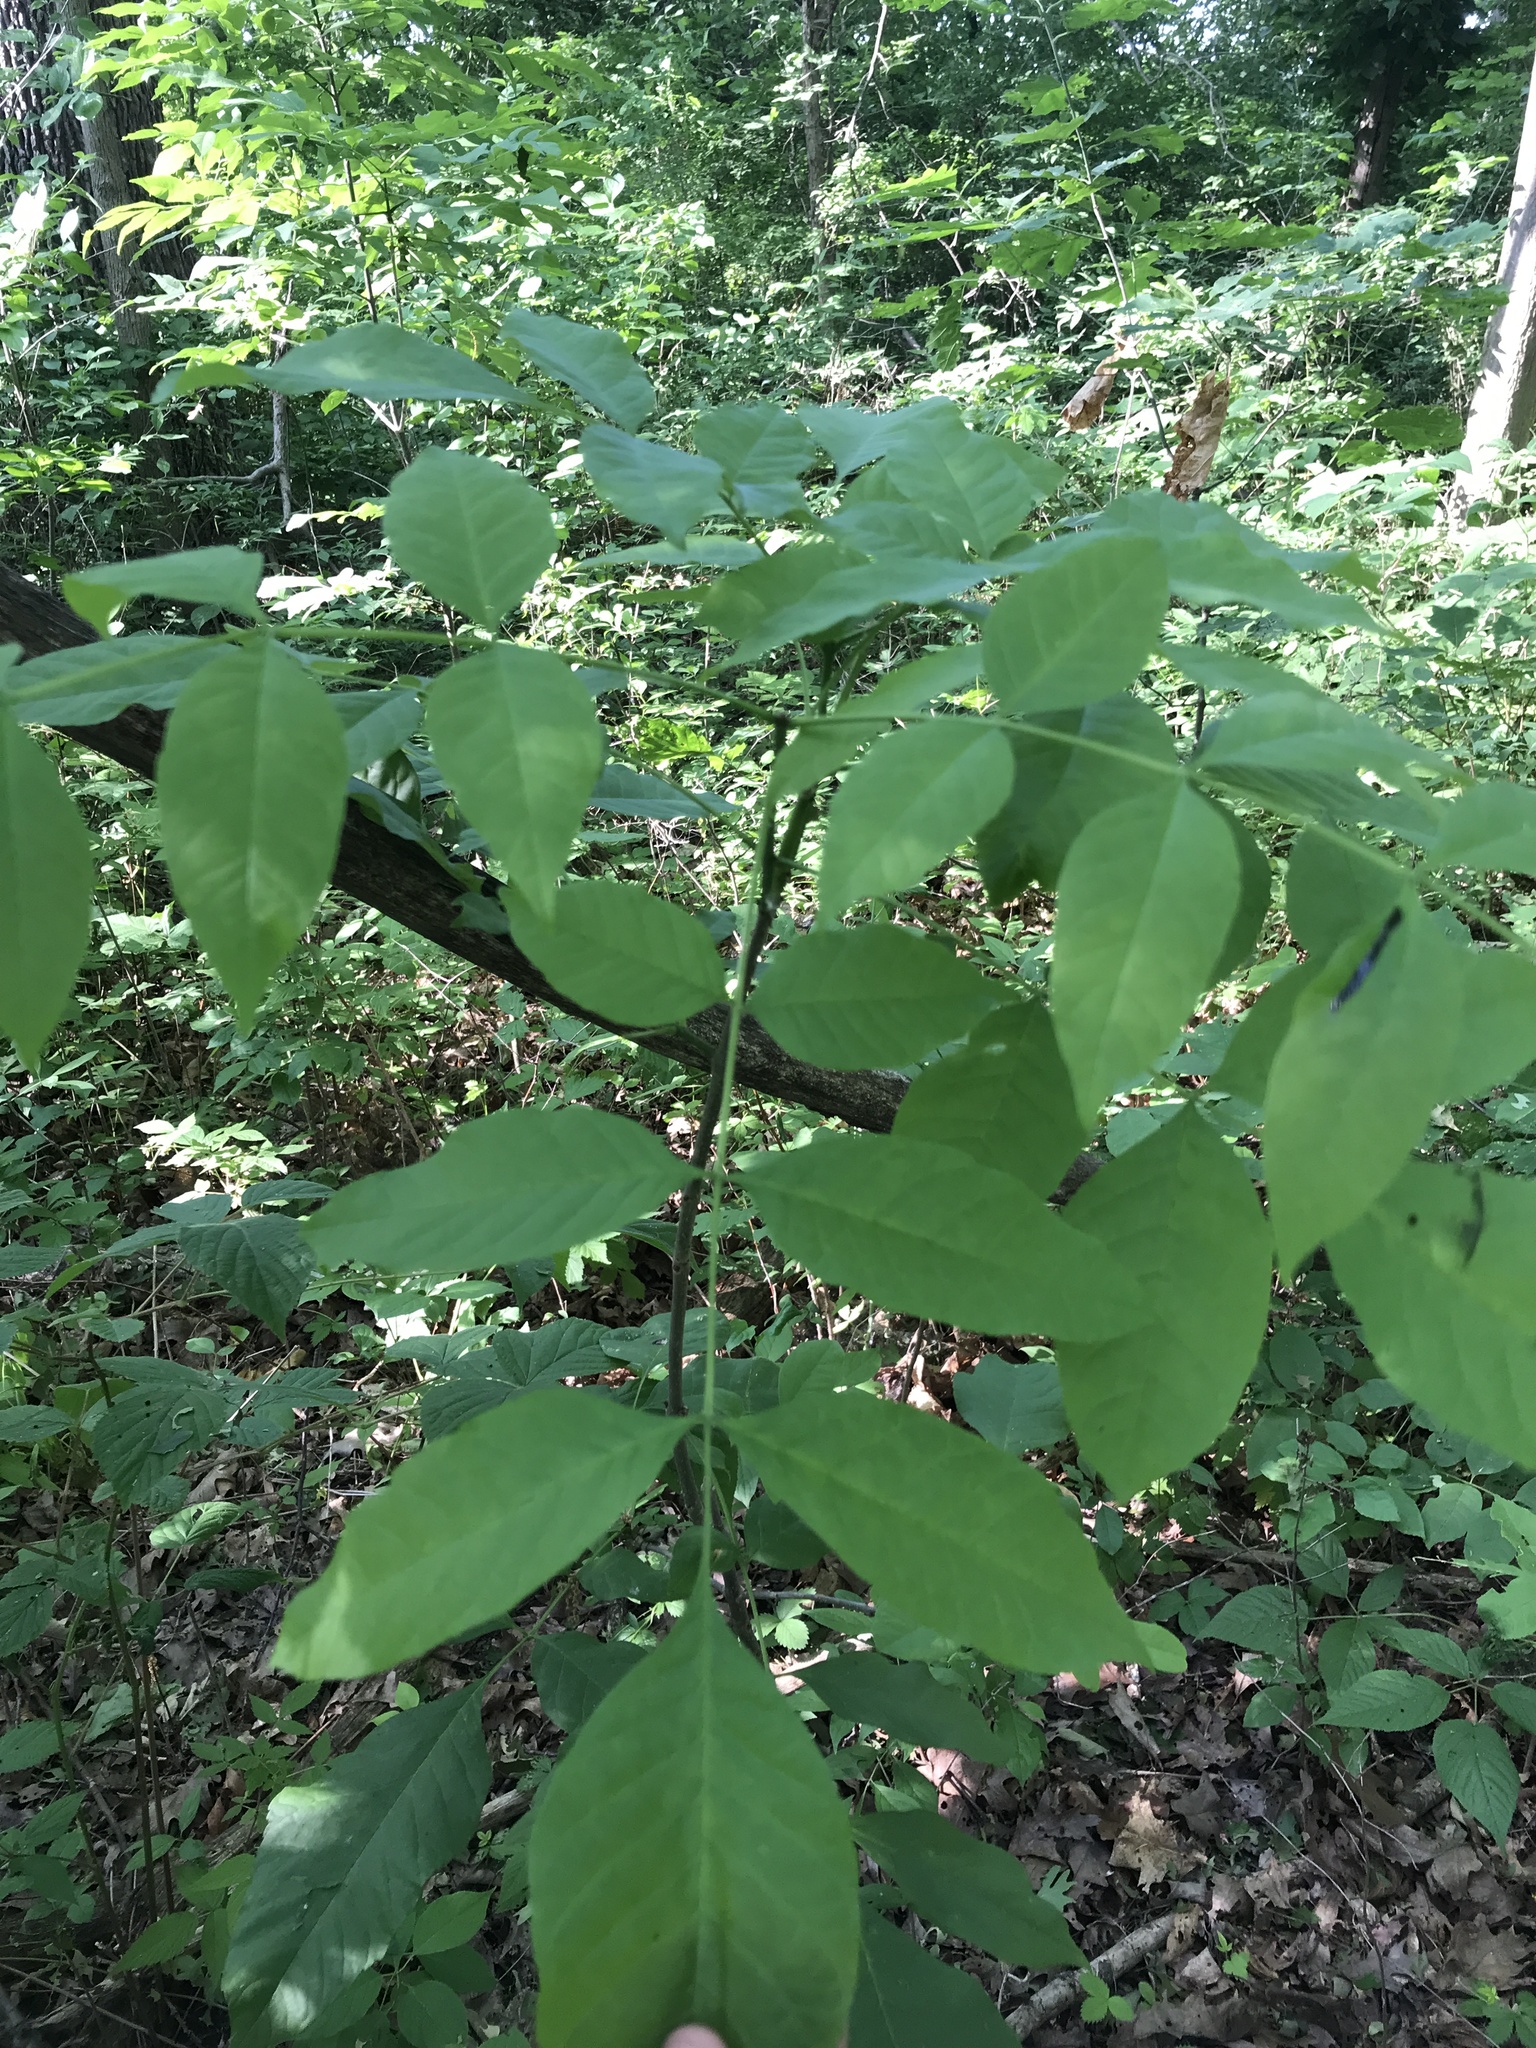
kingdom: Plantae
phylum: Tracheophyta
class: Magnoliopsida
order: Lamiales
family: Oleaceae
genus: Fraxinus
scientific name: Fraxinus americana
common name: White ash
